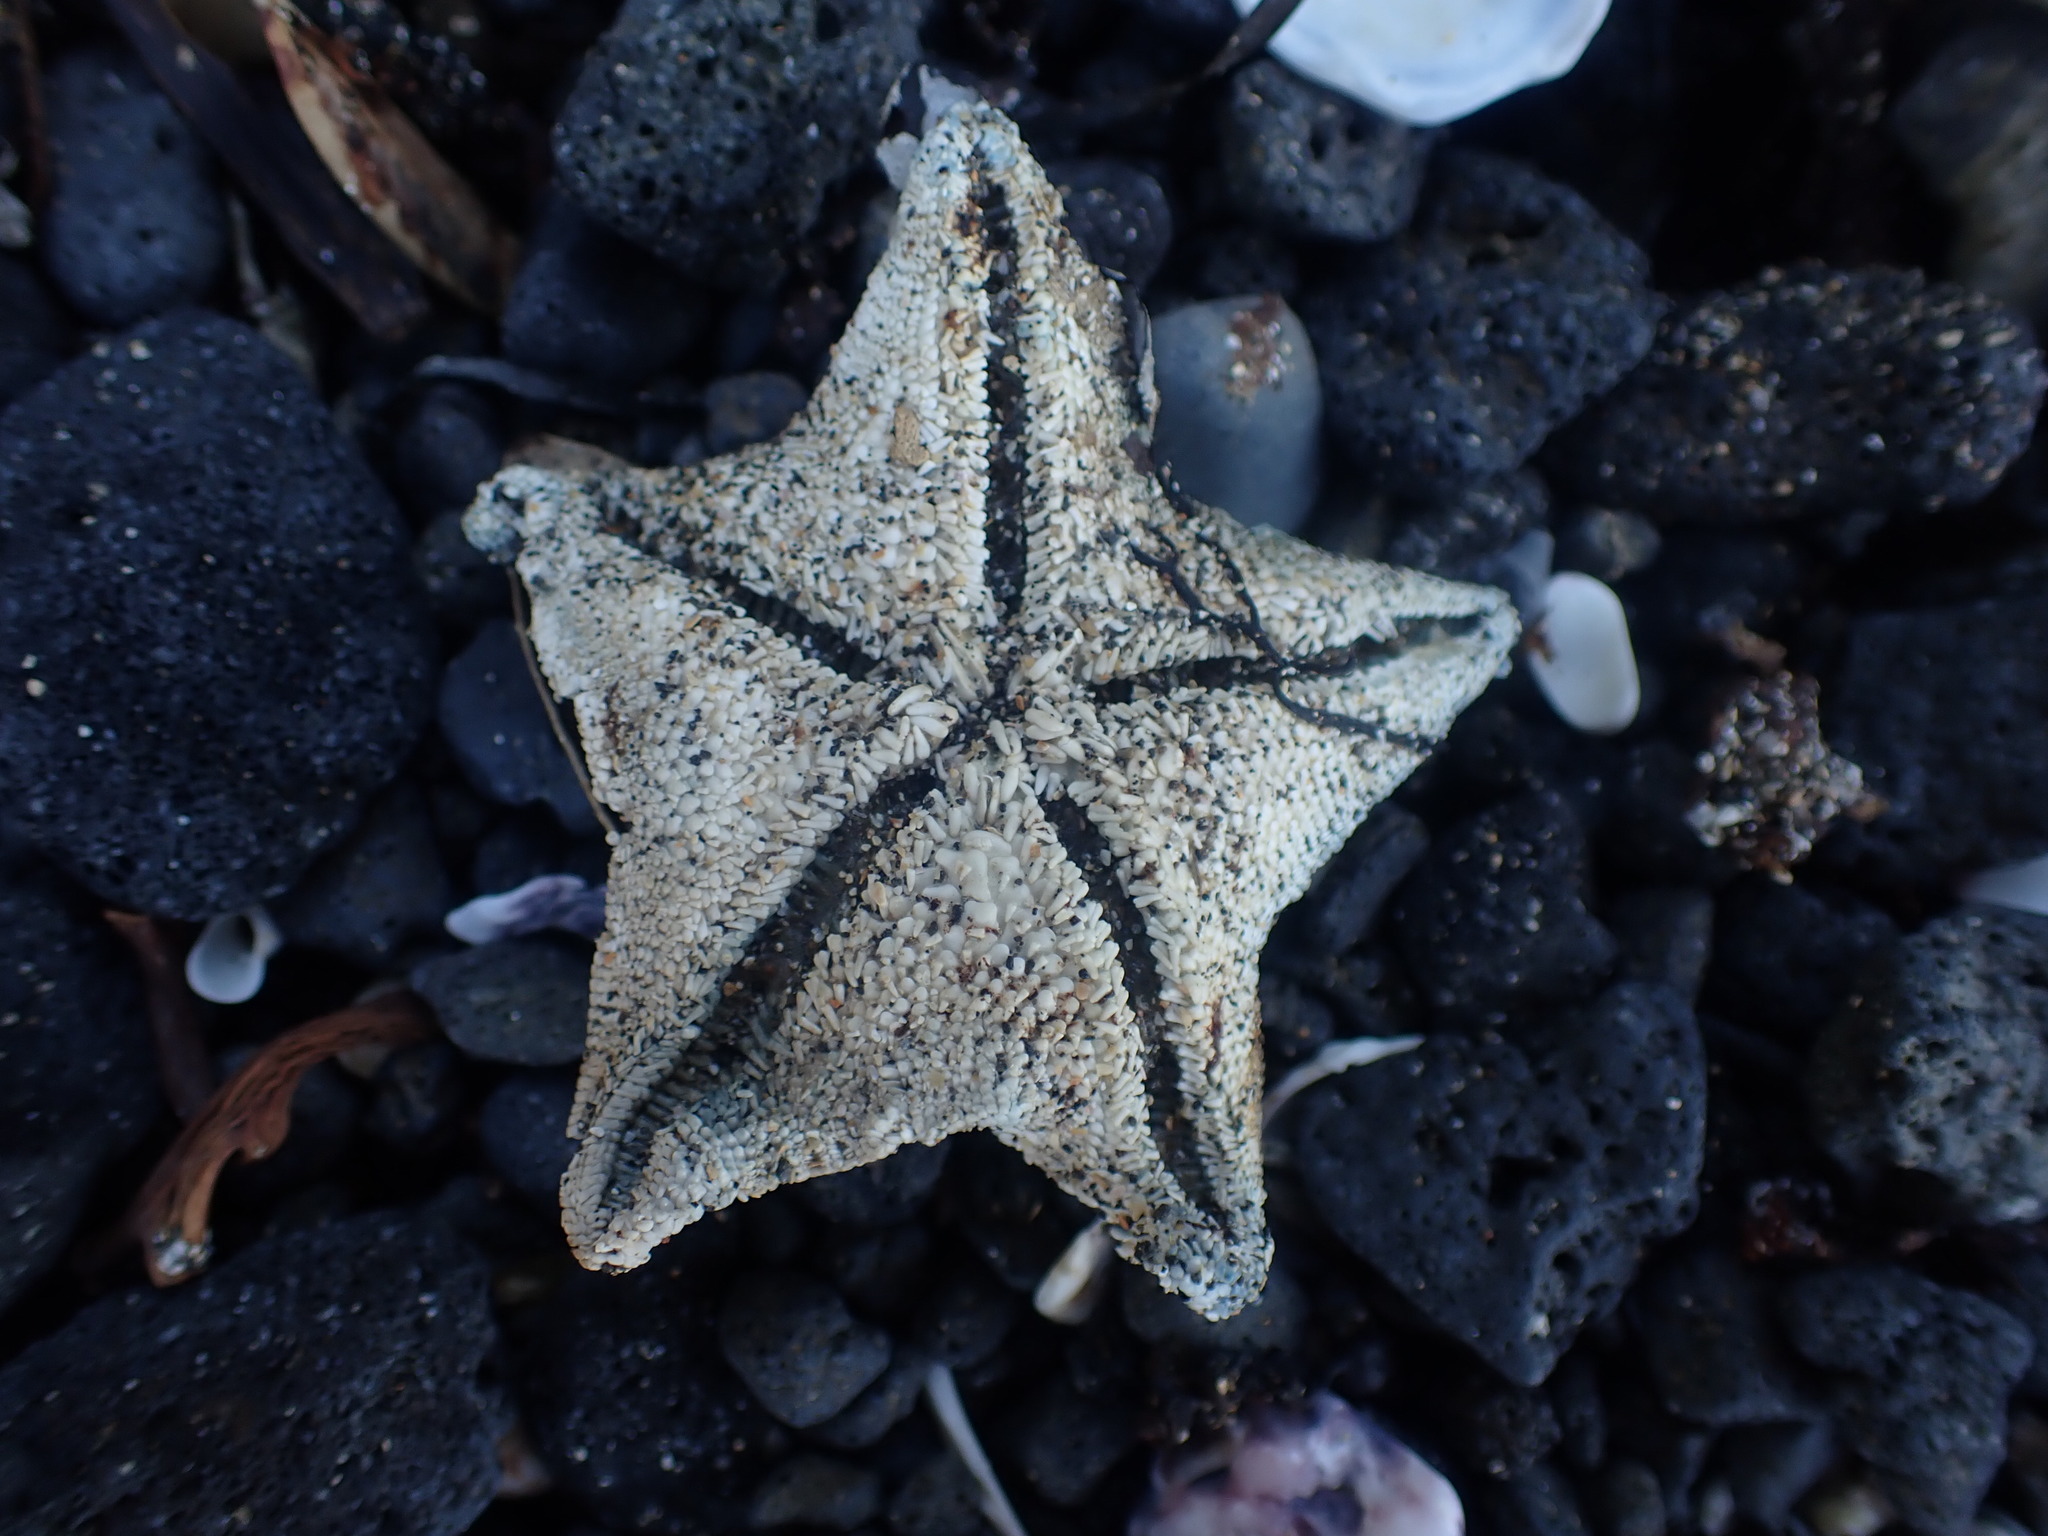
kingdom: Animalia
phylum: Echinodermata
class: Asteroidea
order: Valvatida
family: Asterinidae
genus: Patiriella
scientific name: Patiriella regularis
